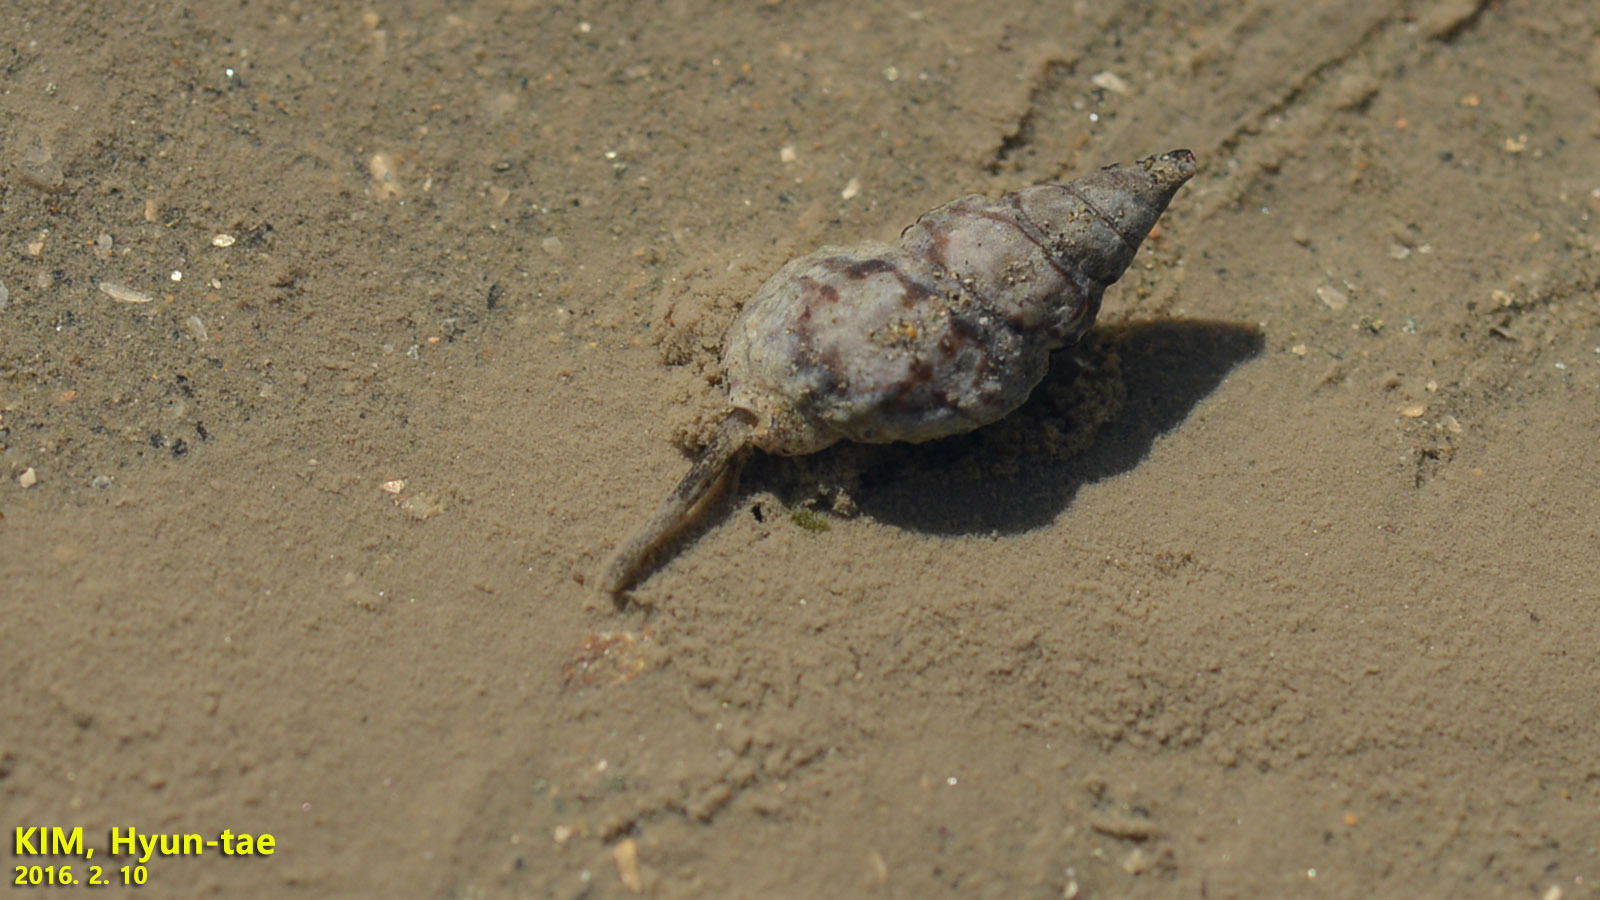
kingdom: Animalia
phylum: Mollusca
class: Gastropoda
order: Neogastropoda
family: Nassariidae
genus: Nassarius
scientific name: Nassarius festivus
